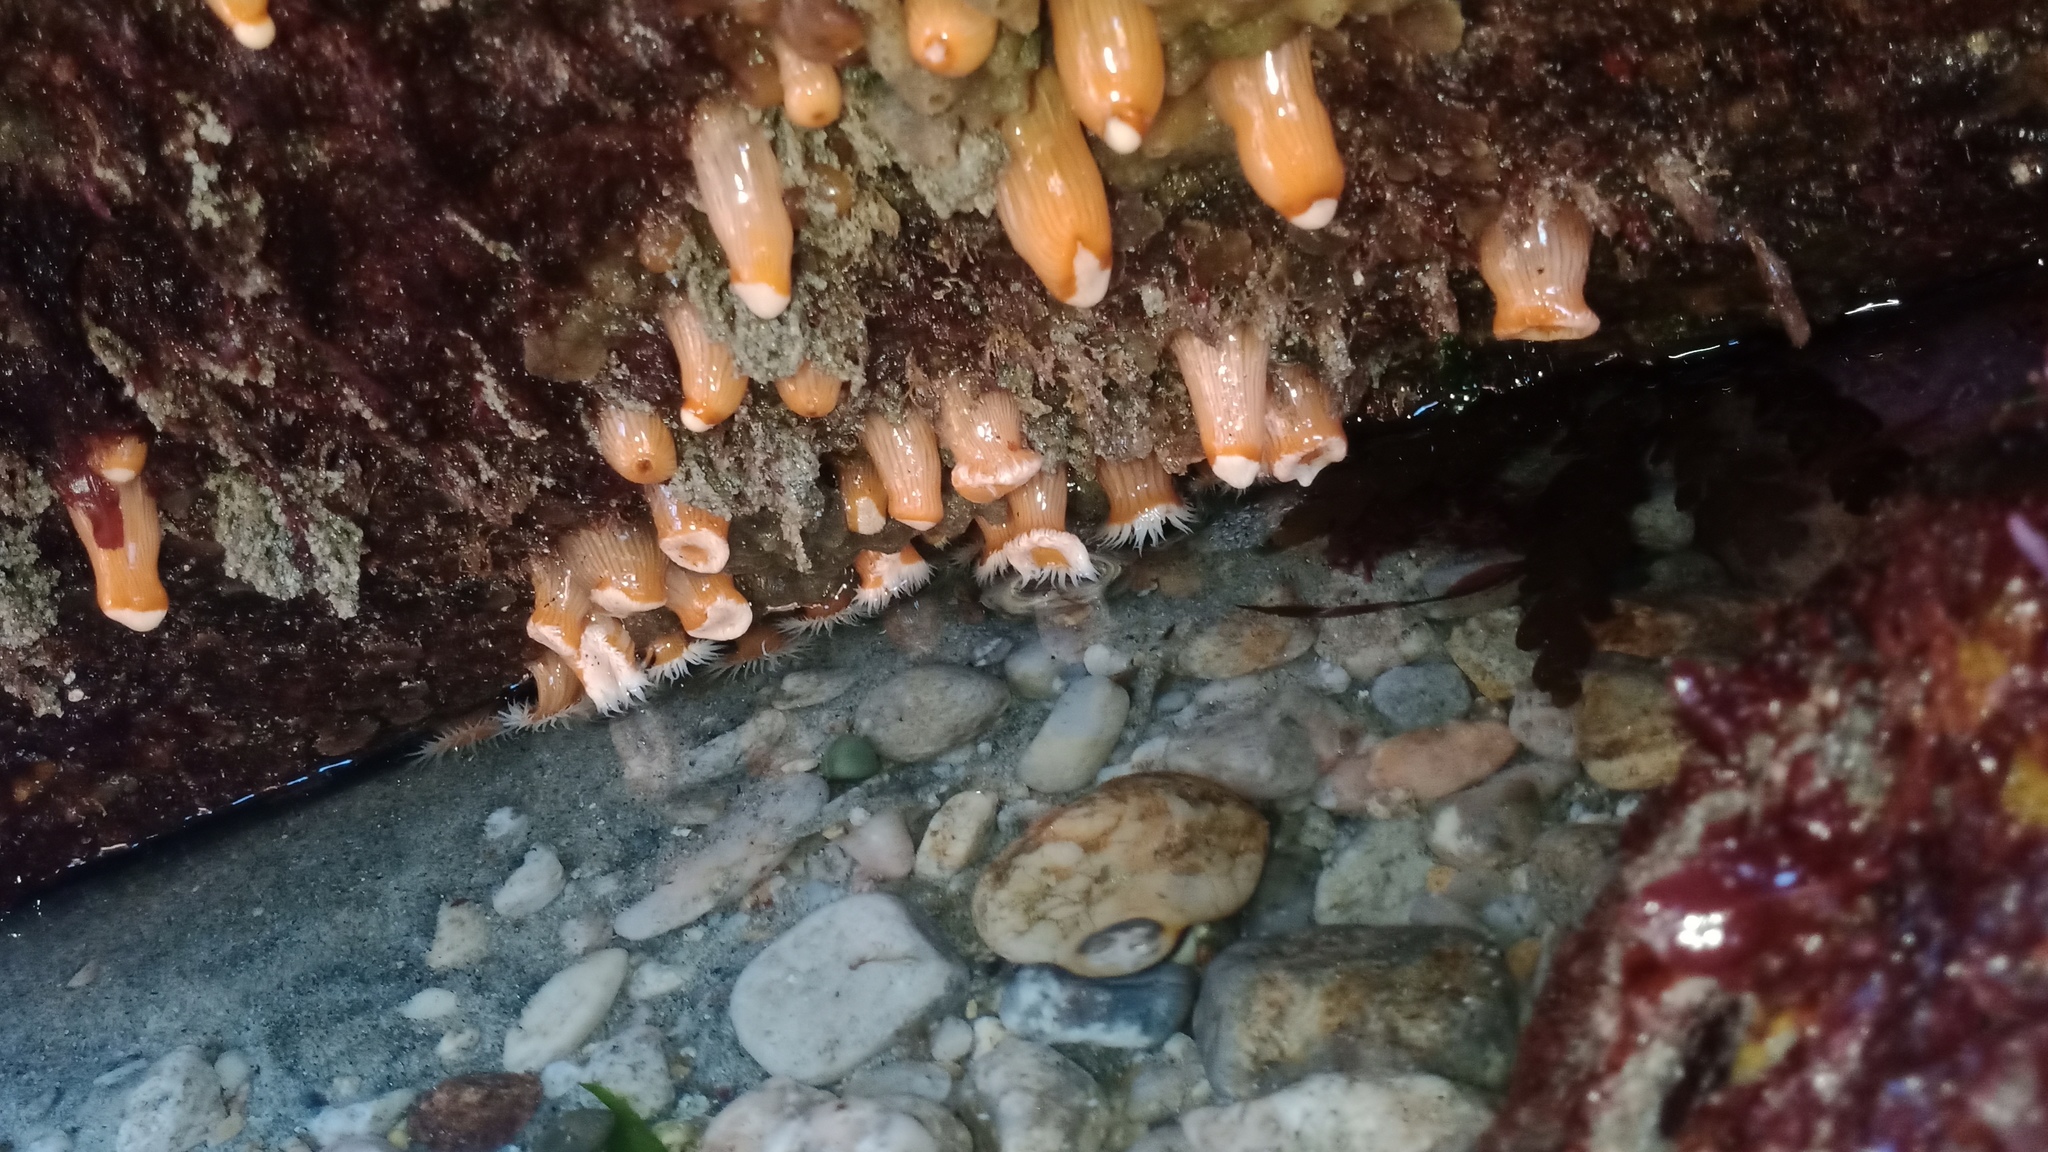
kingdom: Animalia
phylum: Cnidaria
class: Anthozoa
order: Actiniaria
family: Sagartiidae
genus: Anthothoe
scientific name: Anthothoe albocincta
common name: Orange striped anemone
